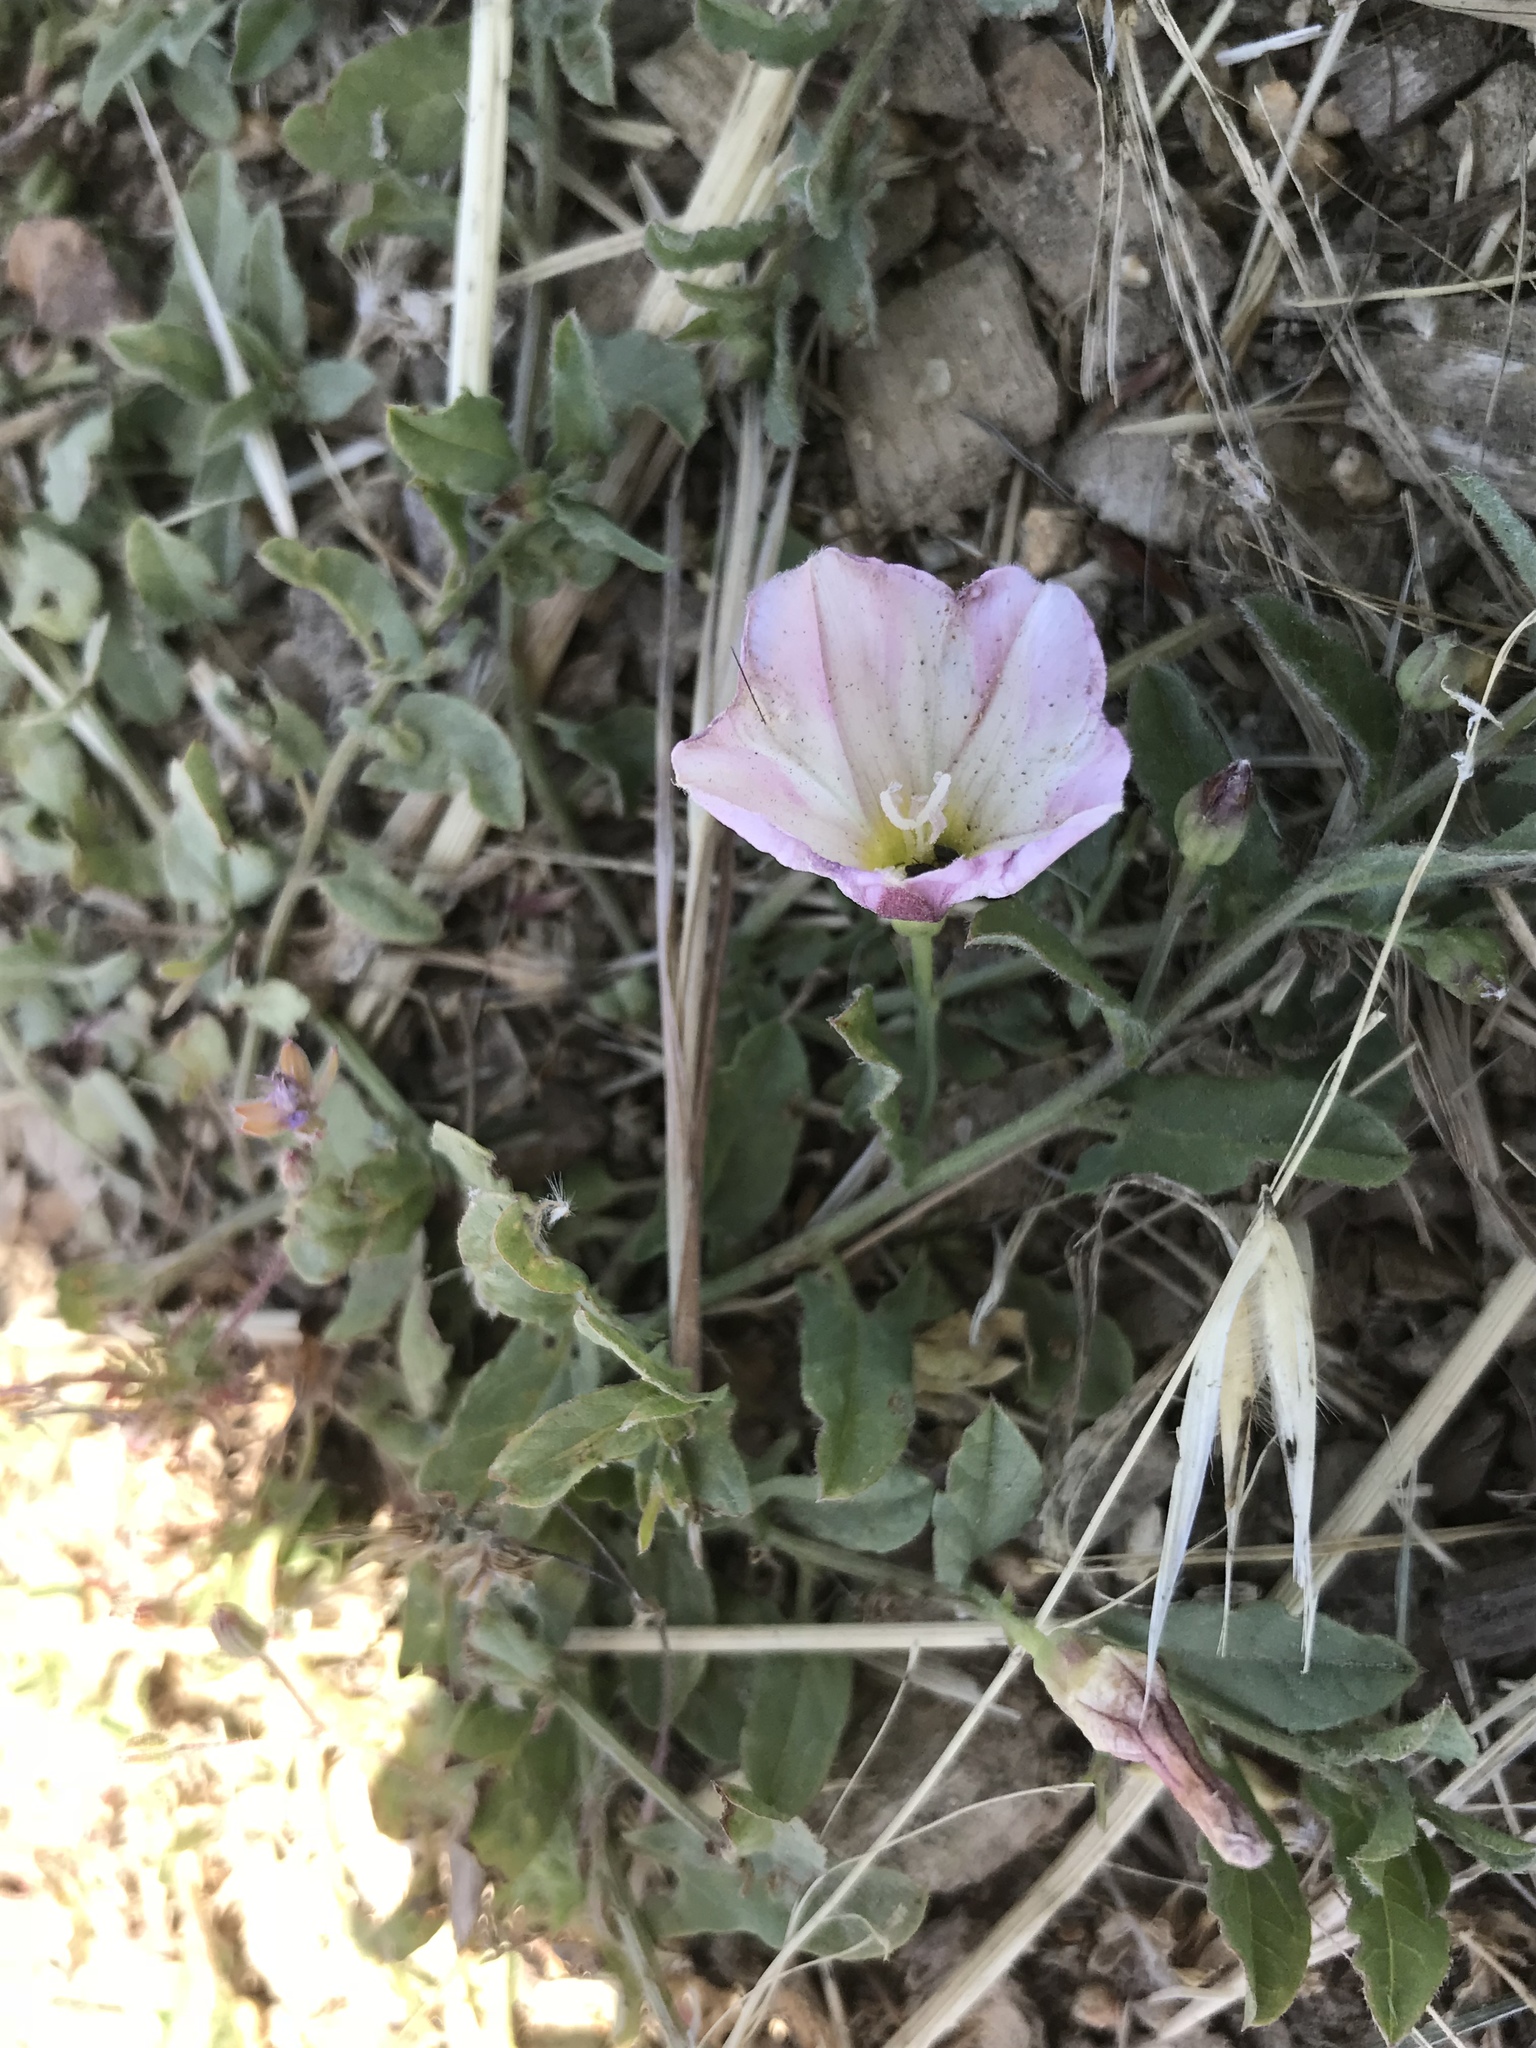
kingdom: Plantae
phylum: Tracheophyta
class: Magnoliopsida
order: Solanales
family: Convolvulaceae
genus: Convolvulus
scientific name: Convolvulus arvensis
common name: Field bindweed
